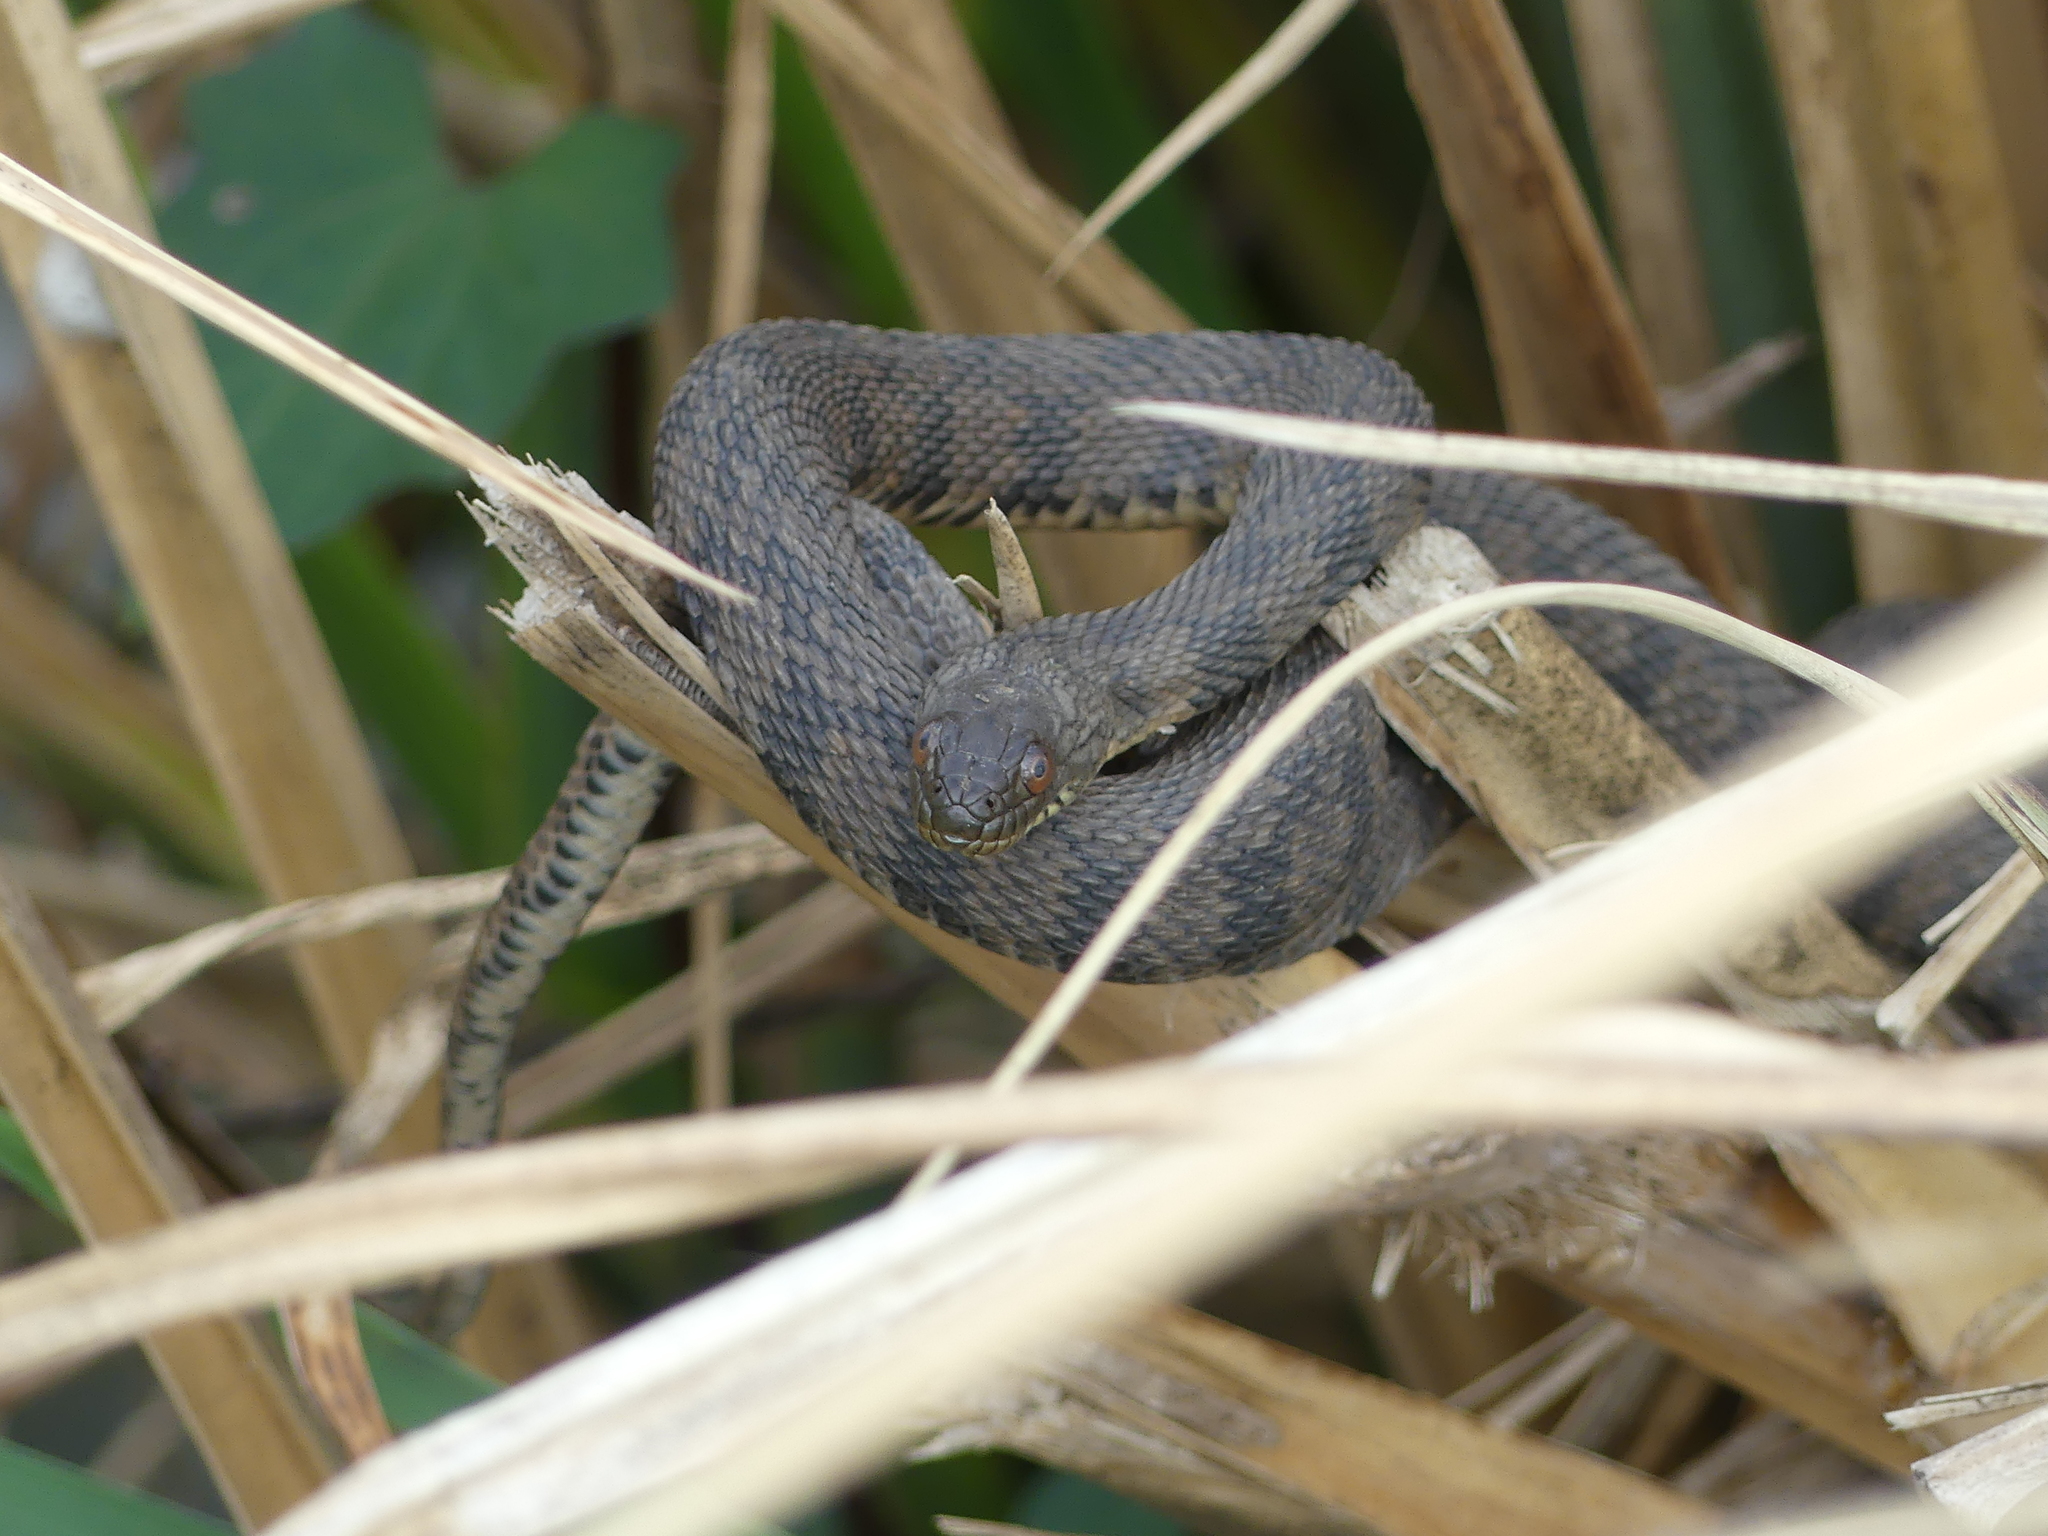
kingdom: Animalia
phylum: Chordata
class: Squamata
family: Colubridae
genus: Nerodia
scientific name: Nerodia rhombifer
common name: Diamondback water snake
